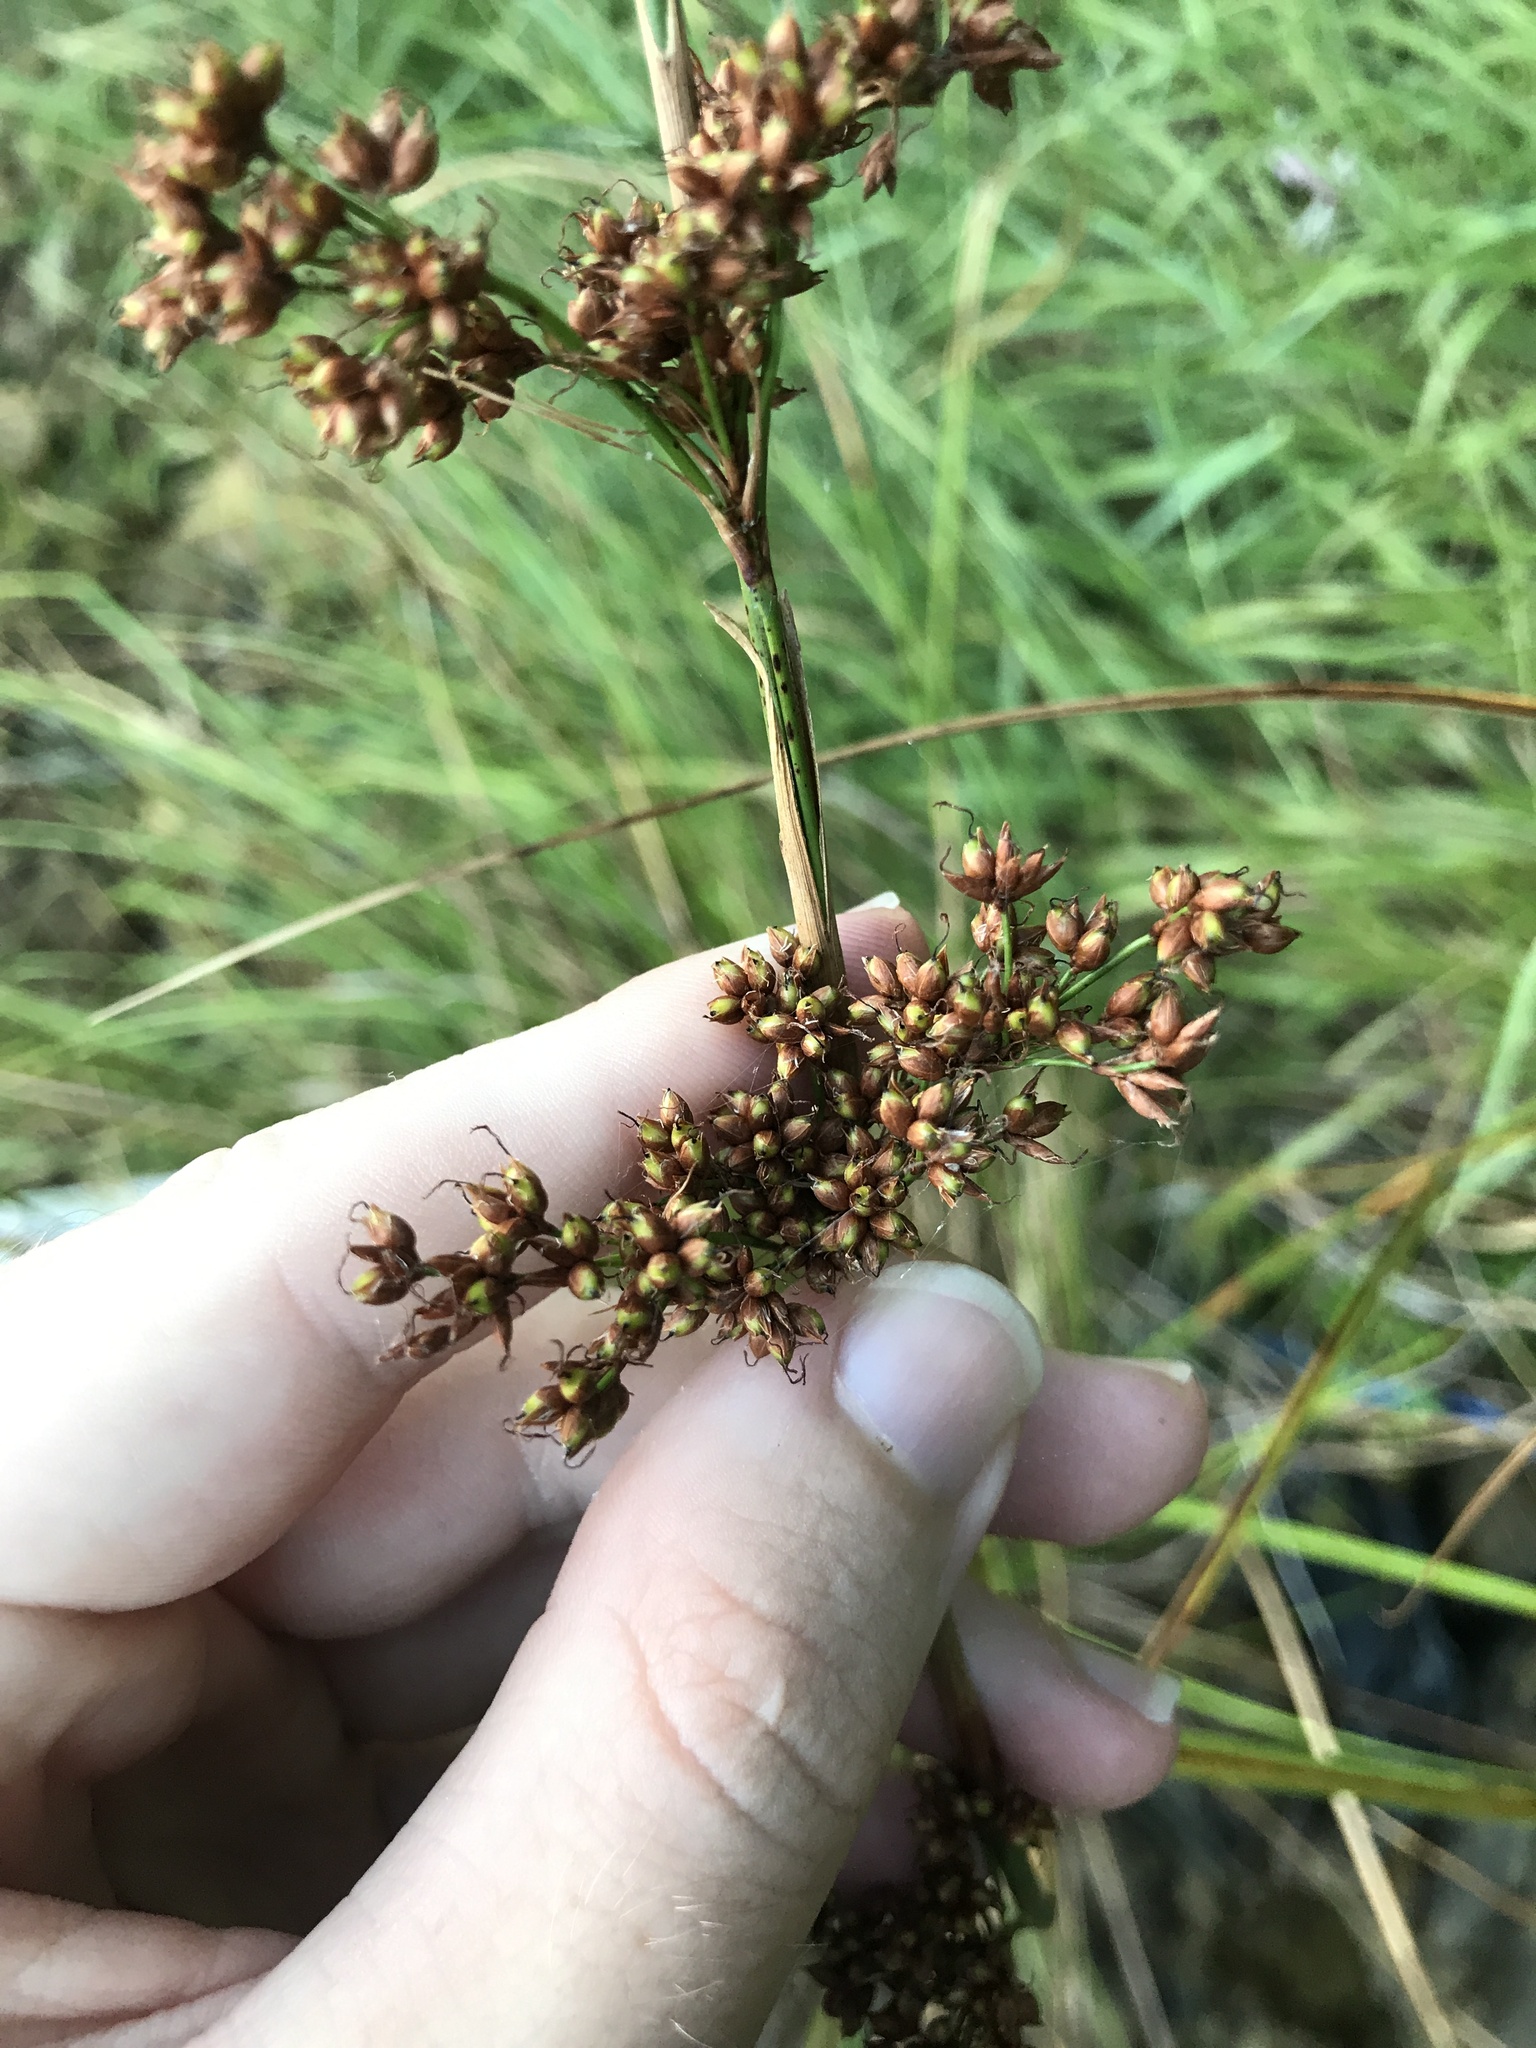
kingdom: Plantae
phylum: Tracheophyta
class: Liliopsida
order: Poales
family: Cyperaceae
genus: Cladium
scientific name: Cladium mariscus
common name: Great fen-sedge
